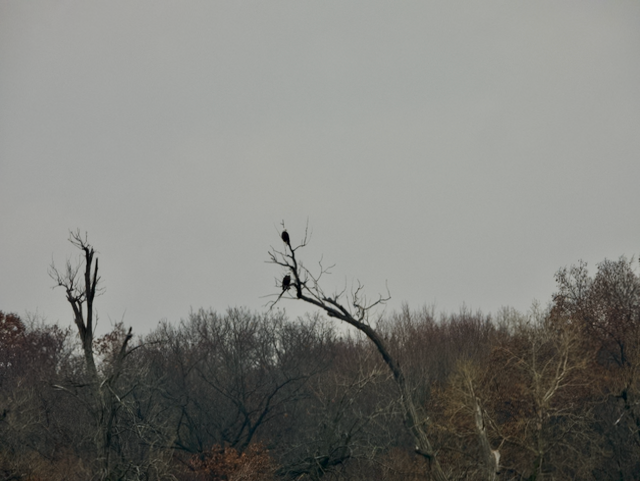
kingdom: Animalia
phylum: Chordata
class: Aves
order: Accipitriformes
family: Accipitridae
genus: Haliaeetus
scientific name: Haliaeetus leucocephalus
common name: Bald eagle
